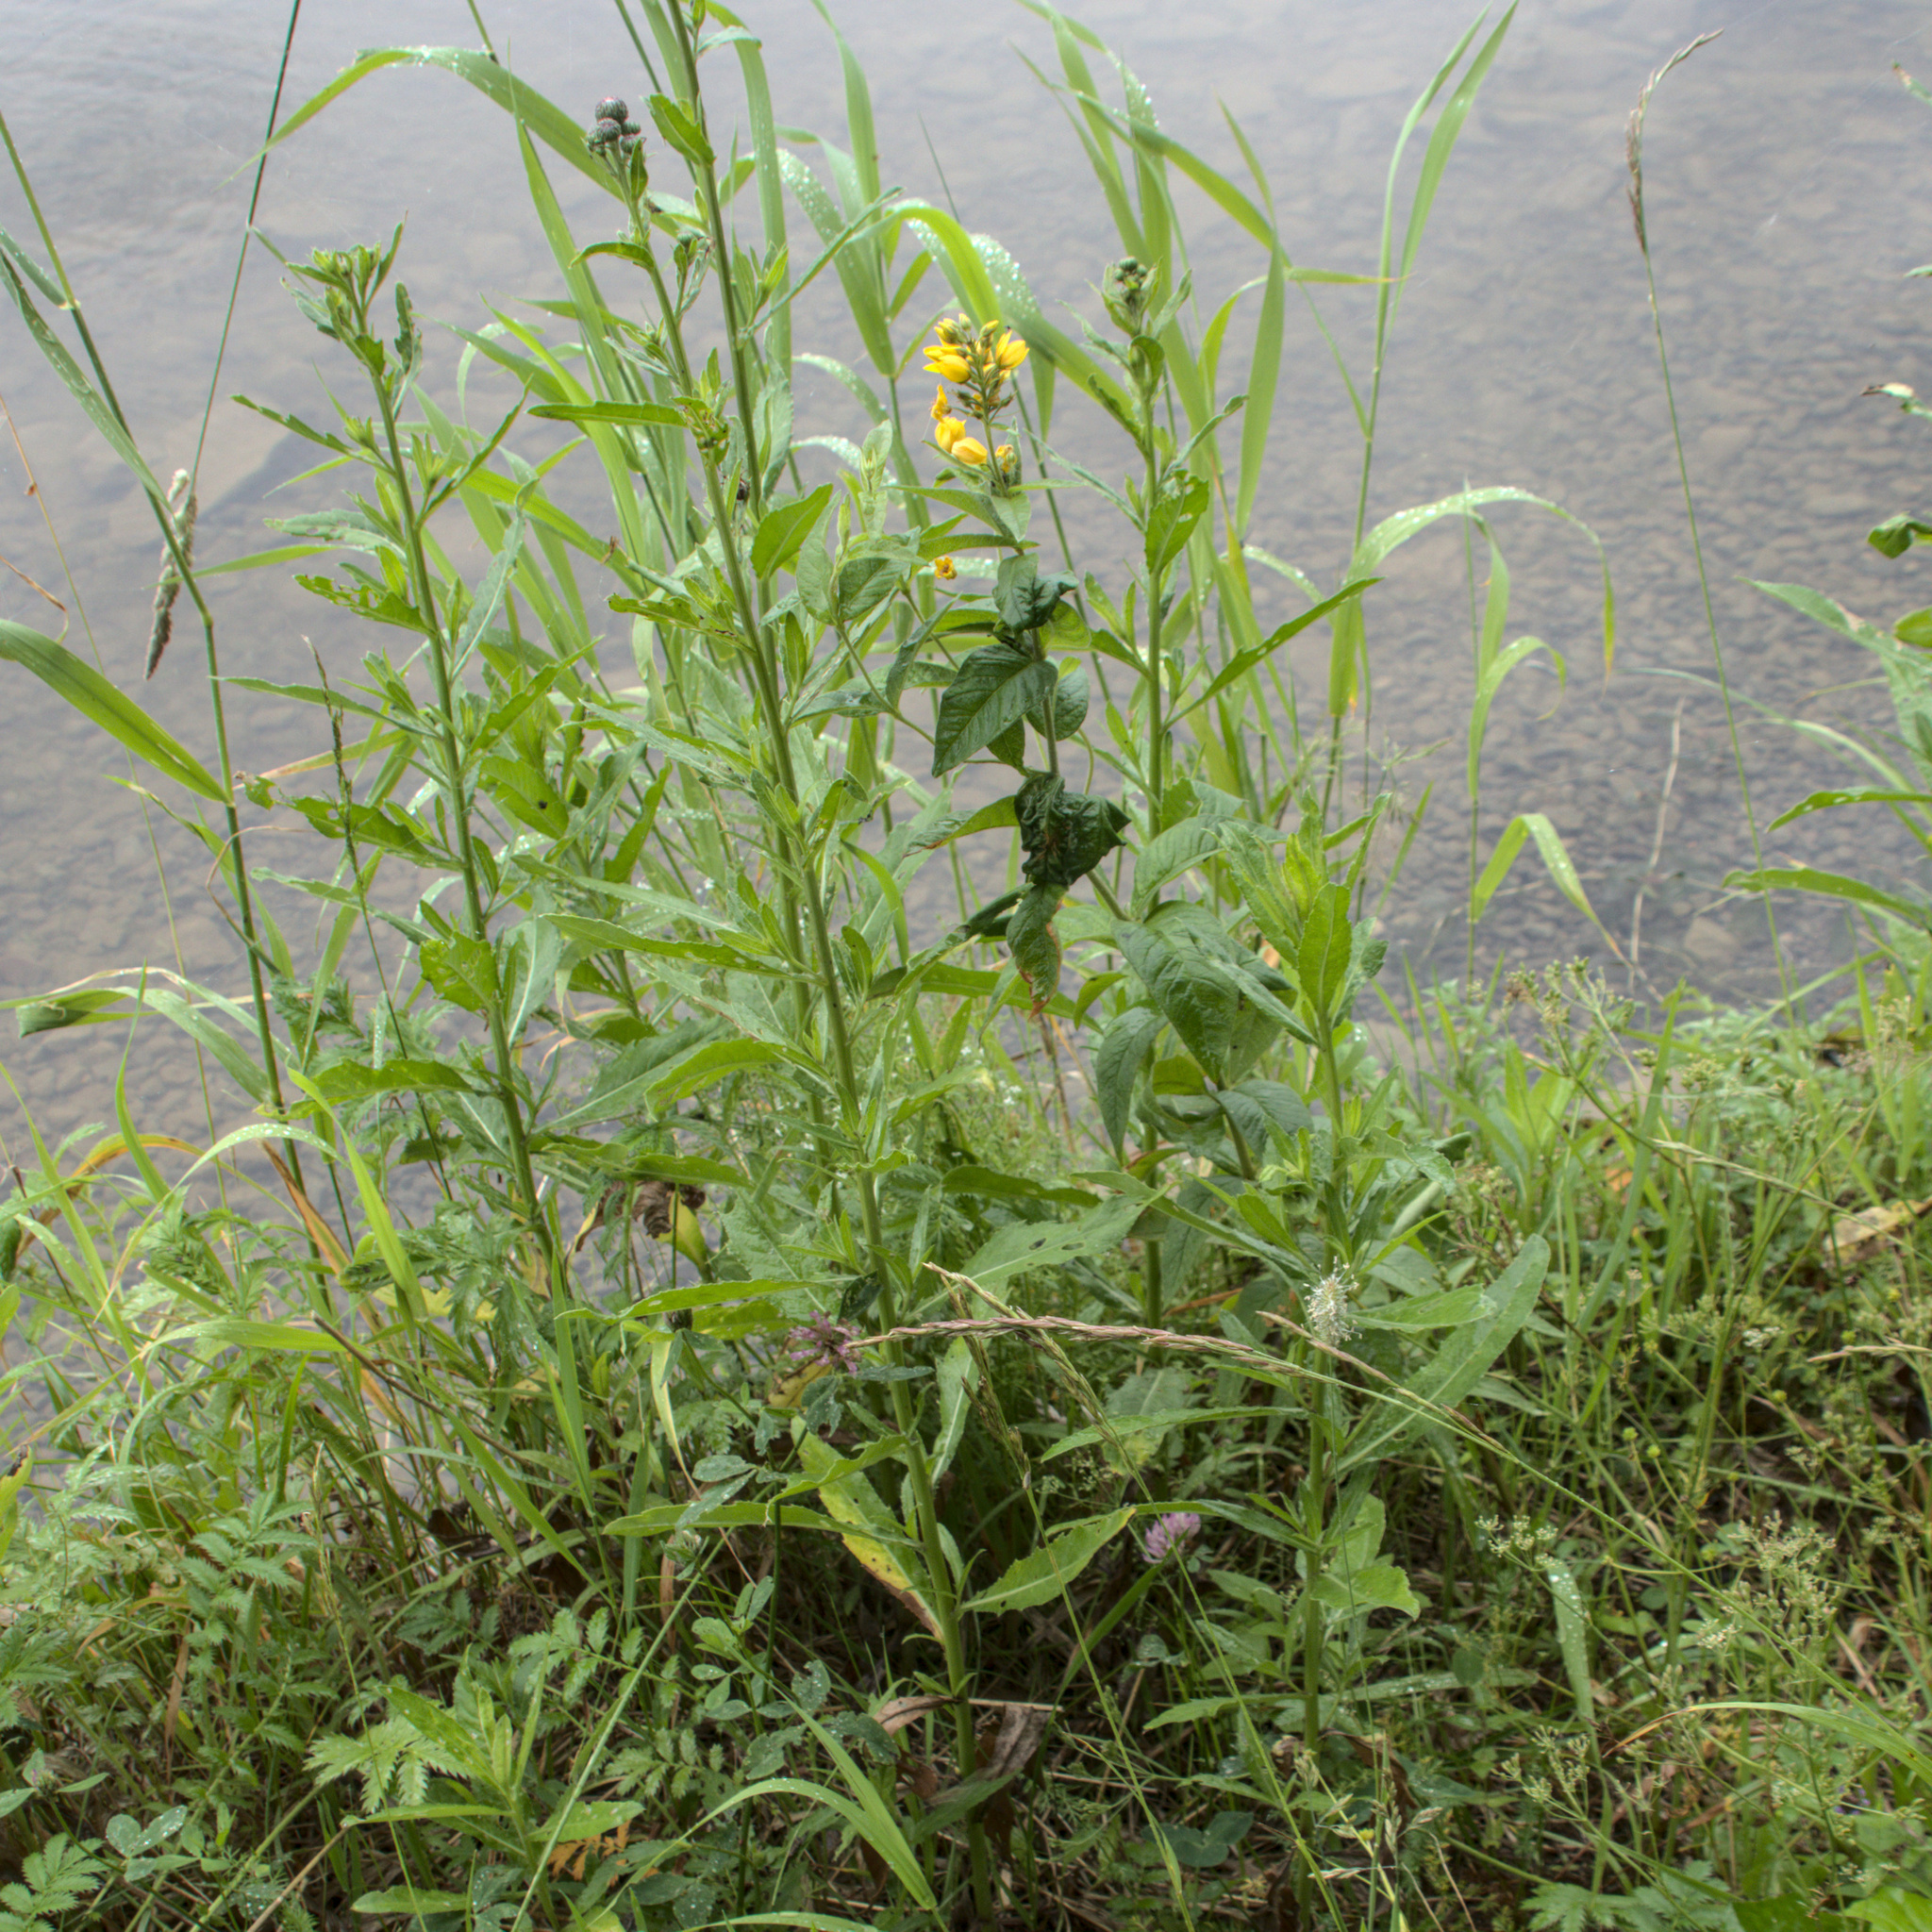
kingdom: Plantae
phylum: Tracheophyta
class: Magnoliopsida
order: Ericales
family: Primulaceae
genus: Lysimachia
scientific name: Lysimachia vulgaris
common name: Yellow loosestrife
